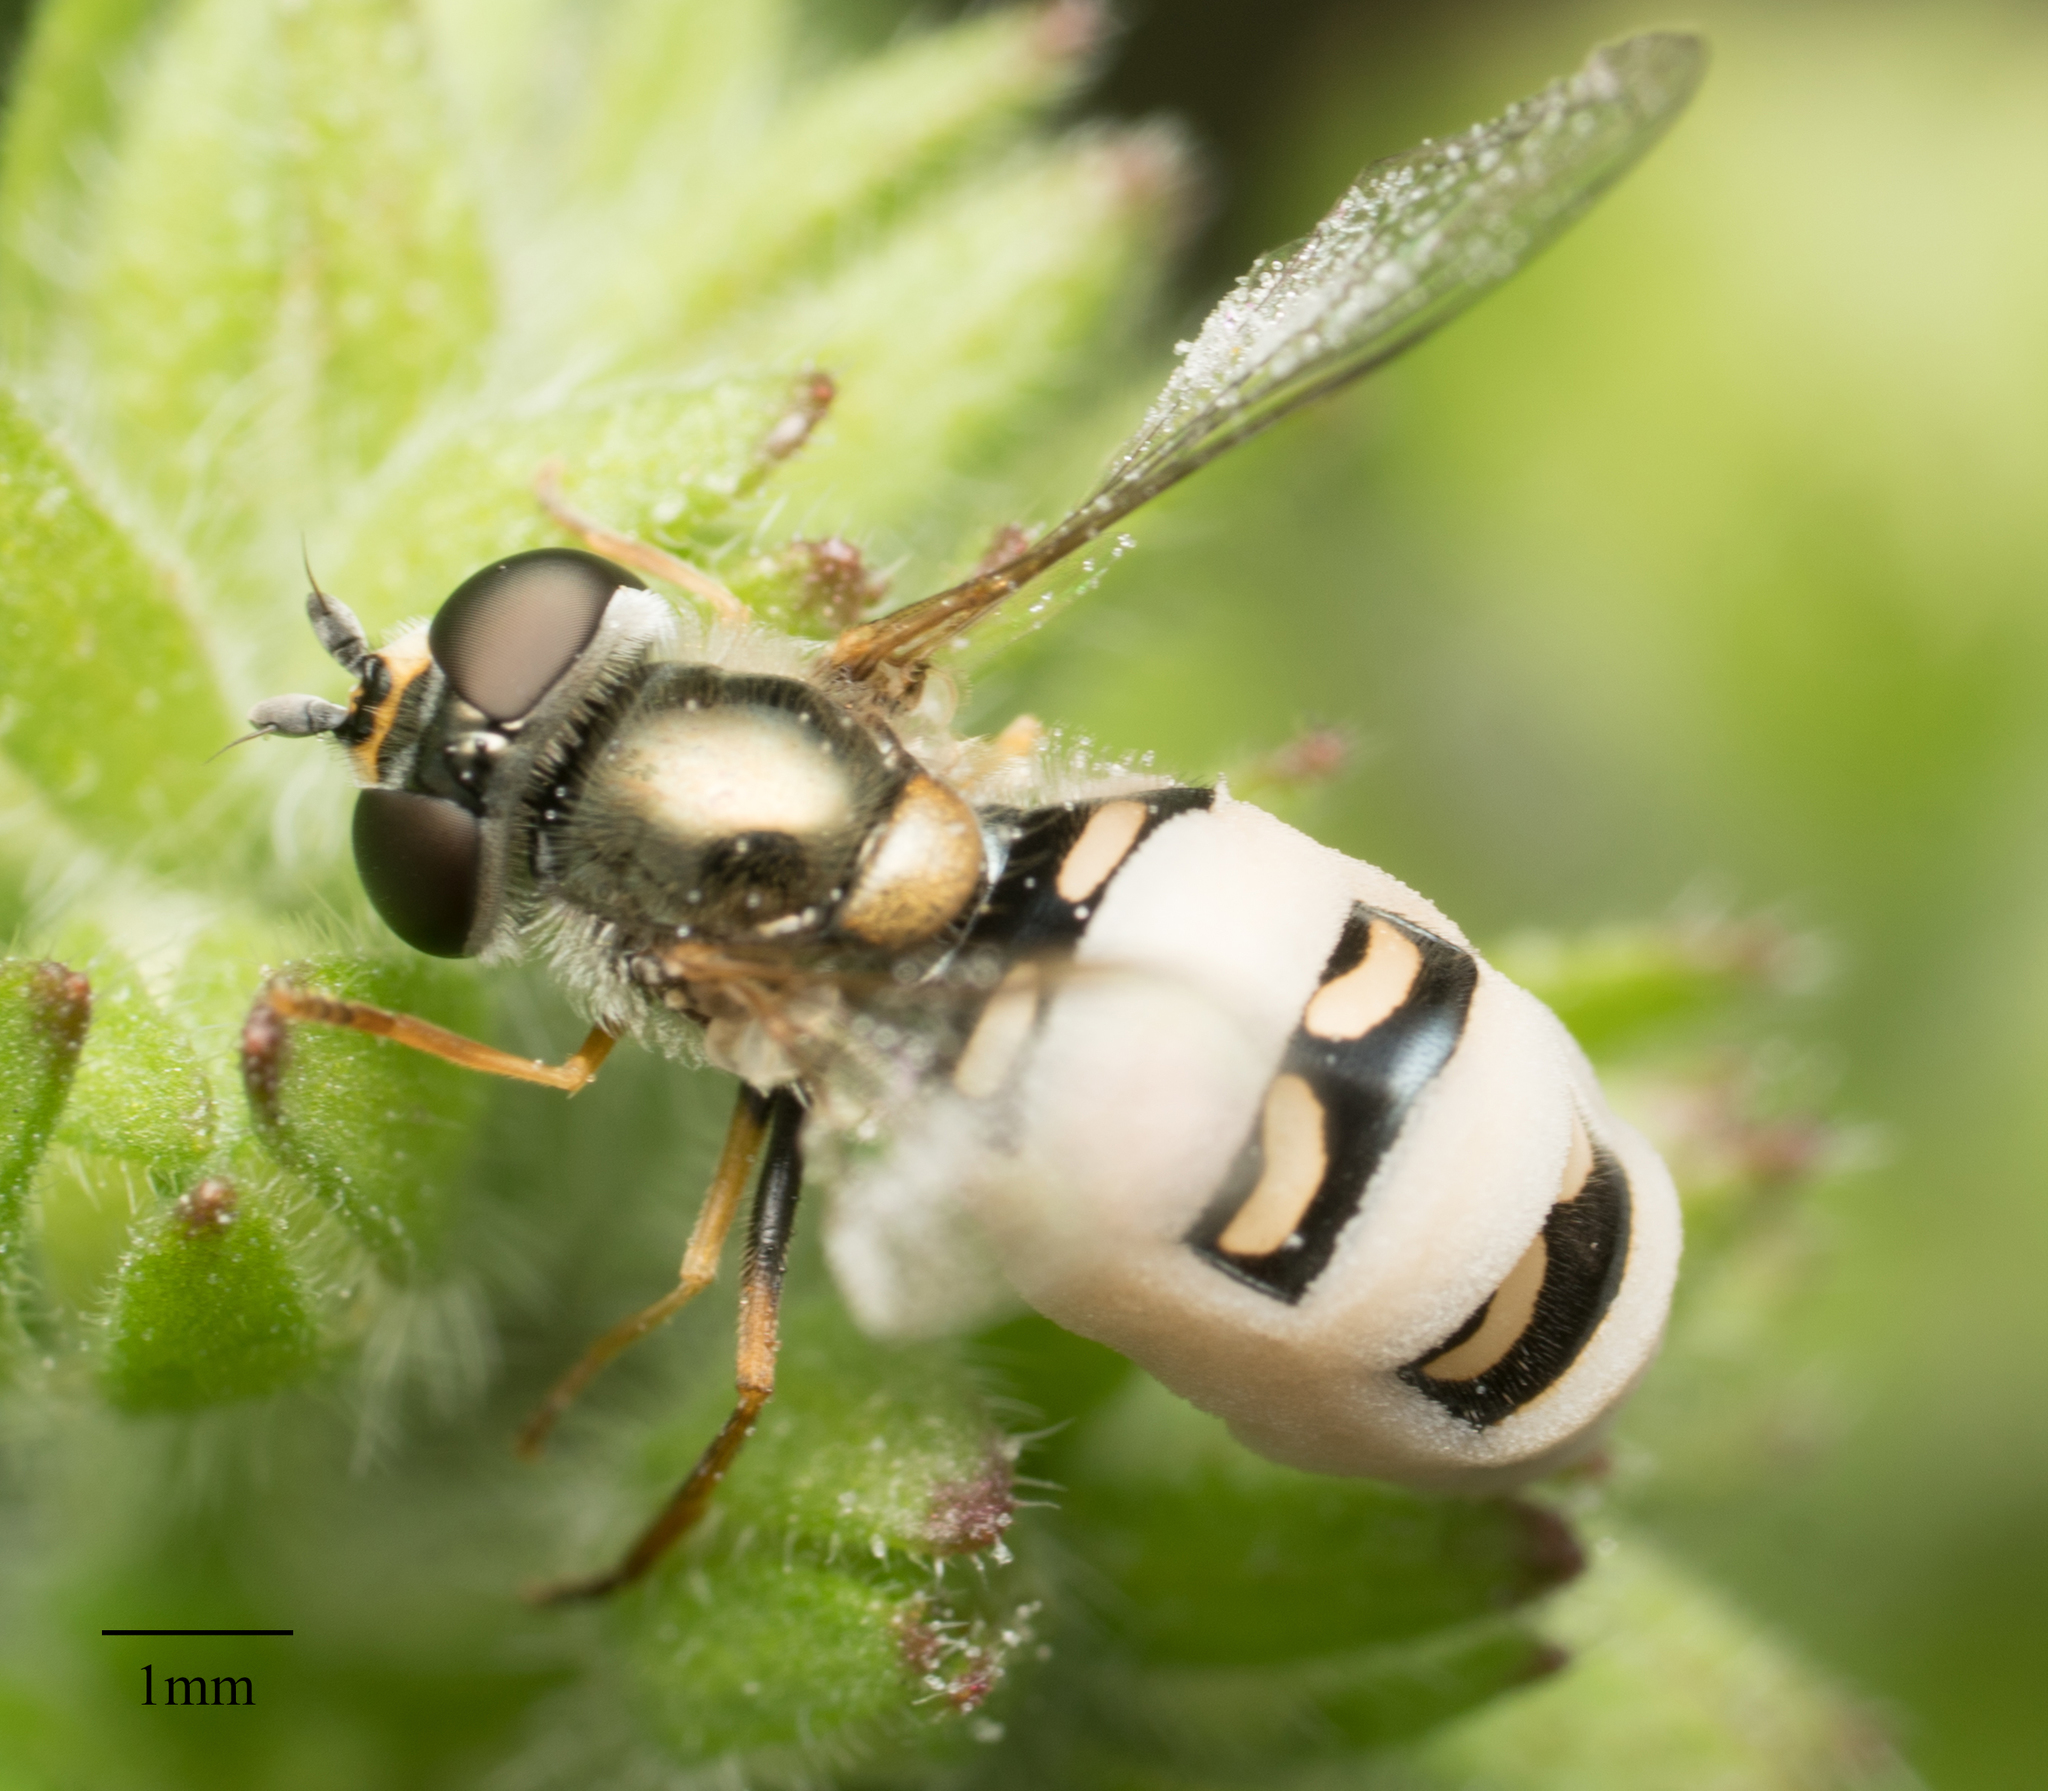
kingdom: Animalia
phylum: Arthropoda
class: Insecta
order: Diptera
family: Syrphidae
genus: Eupeodes
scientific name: Eupeodes volucris
